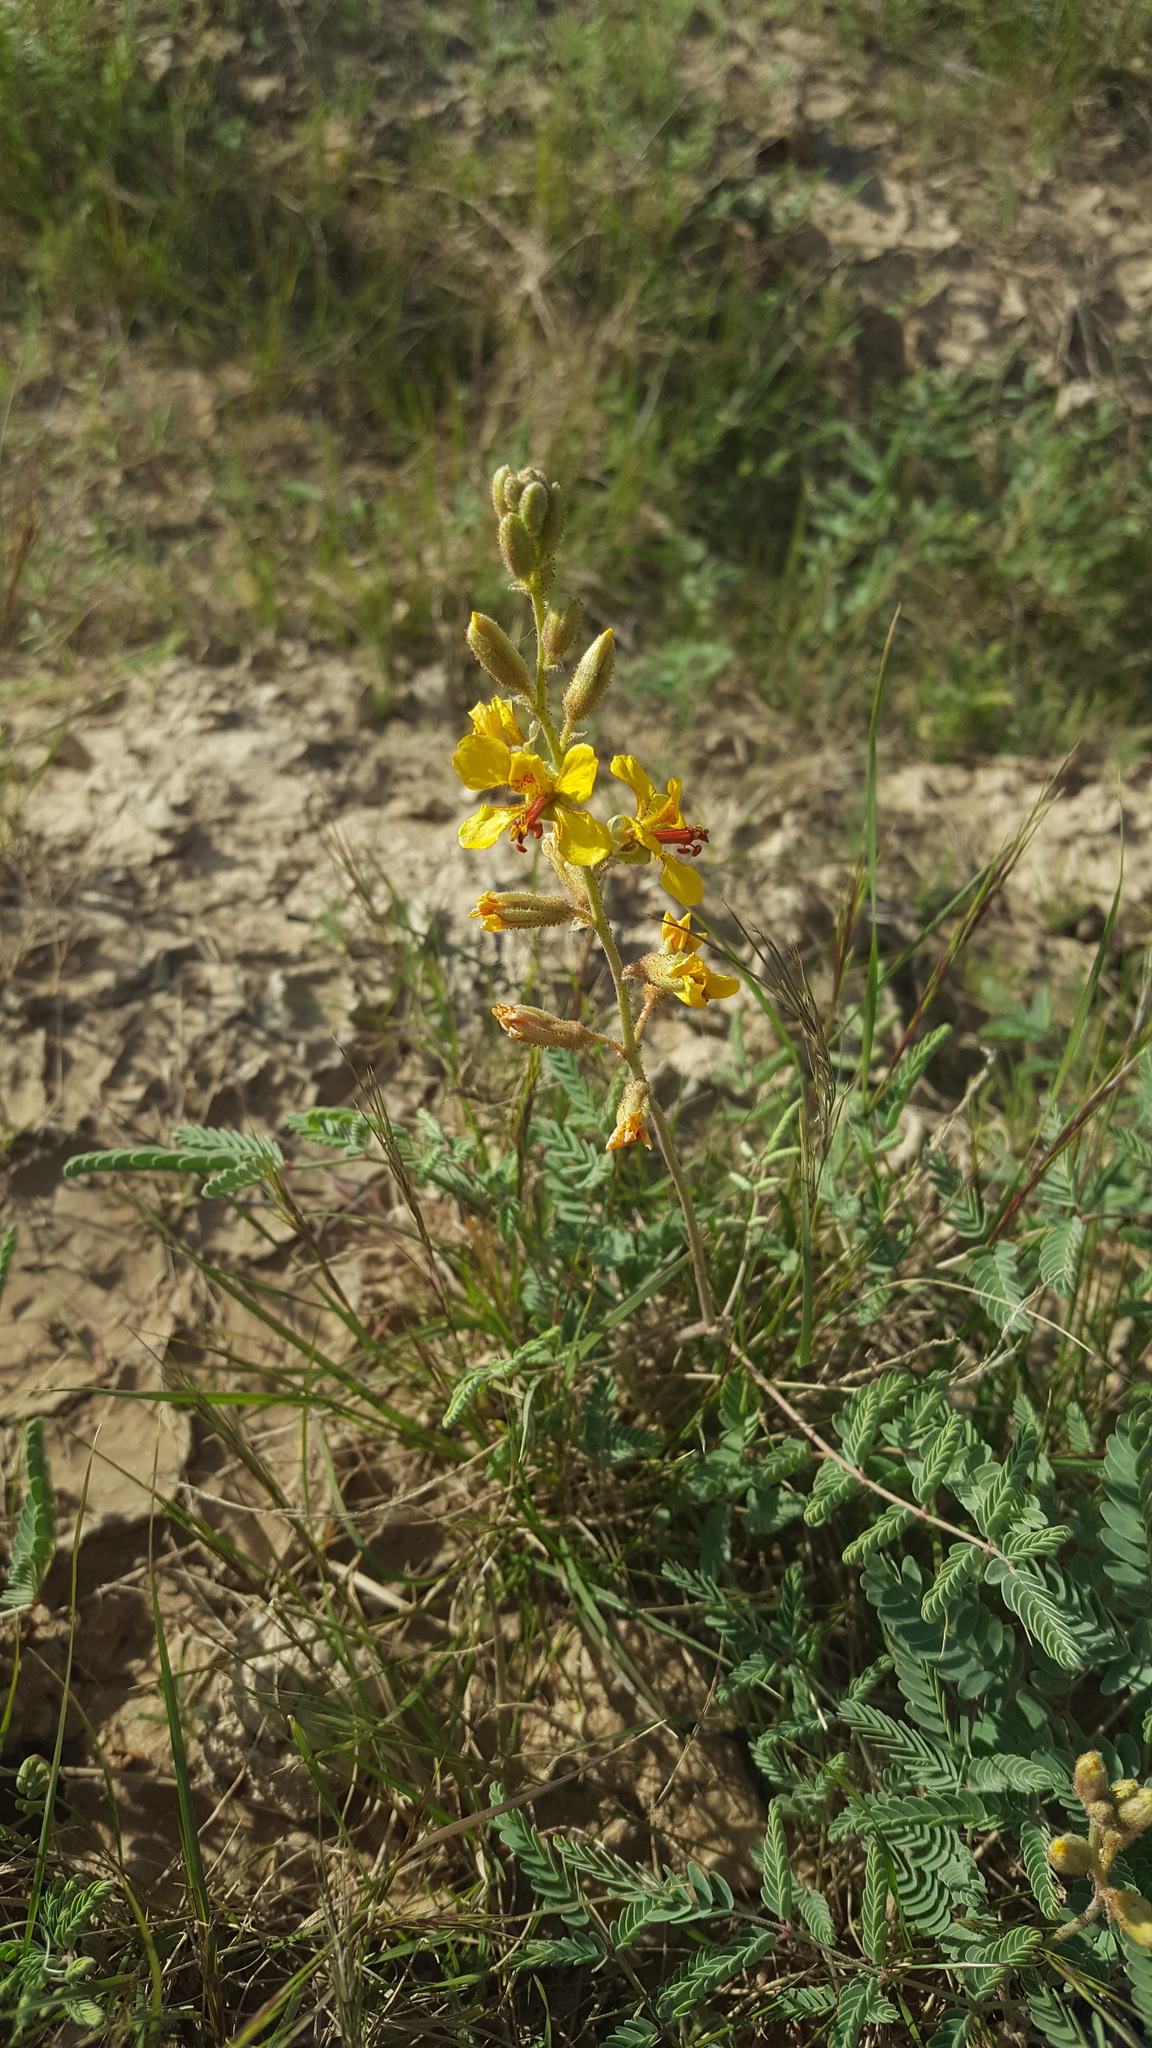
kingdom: Plantae
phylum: Tracheophyta
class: Magnoliopsida
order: Fabales
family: Fabaceae
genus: Hoffmannseggia
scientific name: Hoffmannseggia glauca
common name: Pignut
